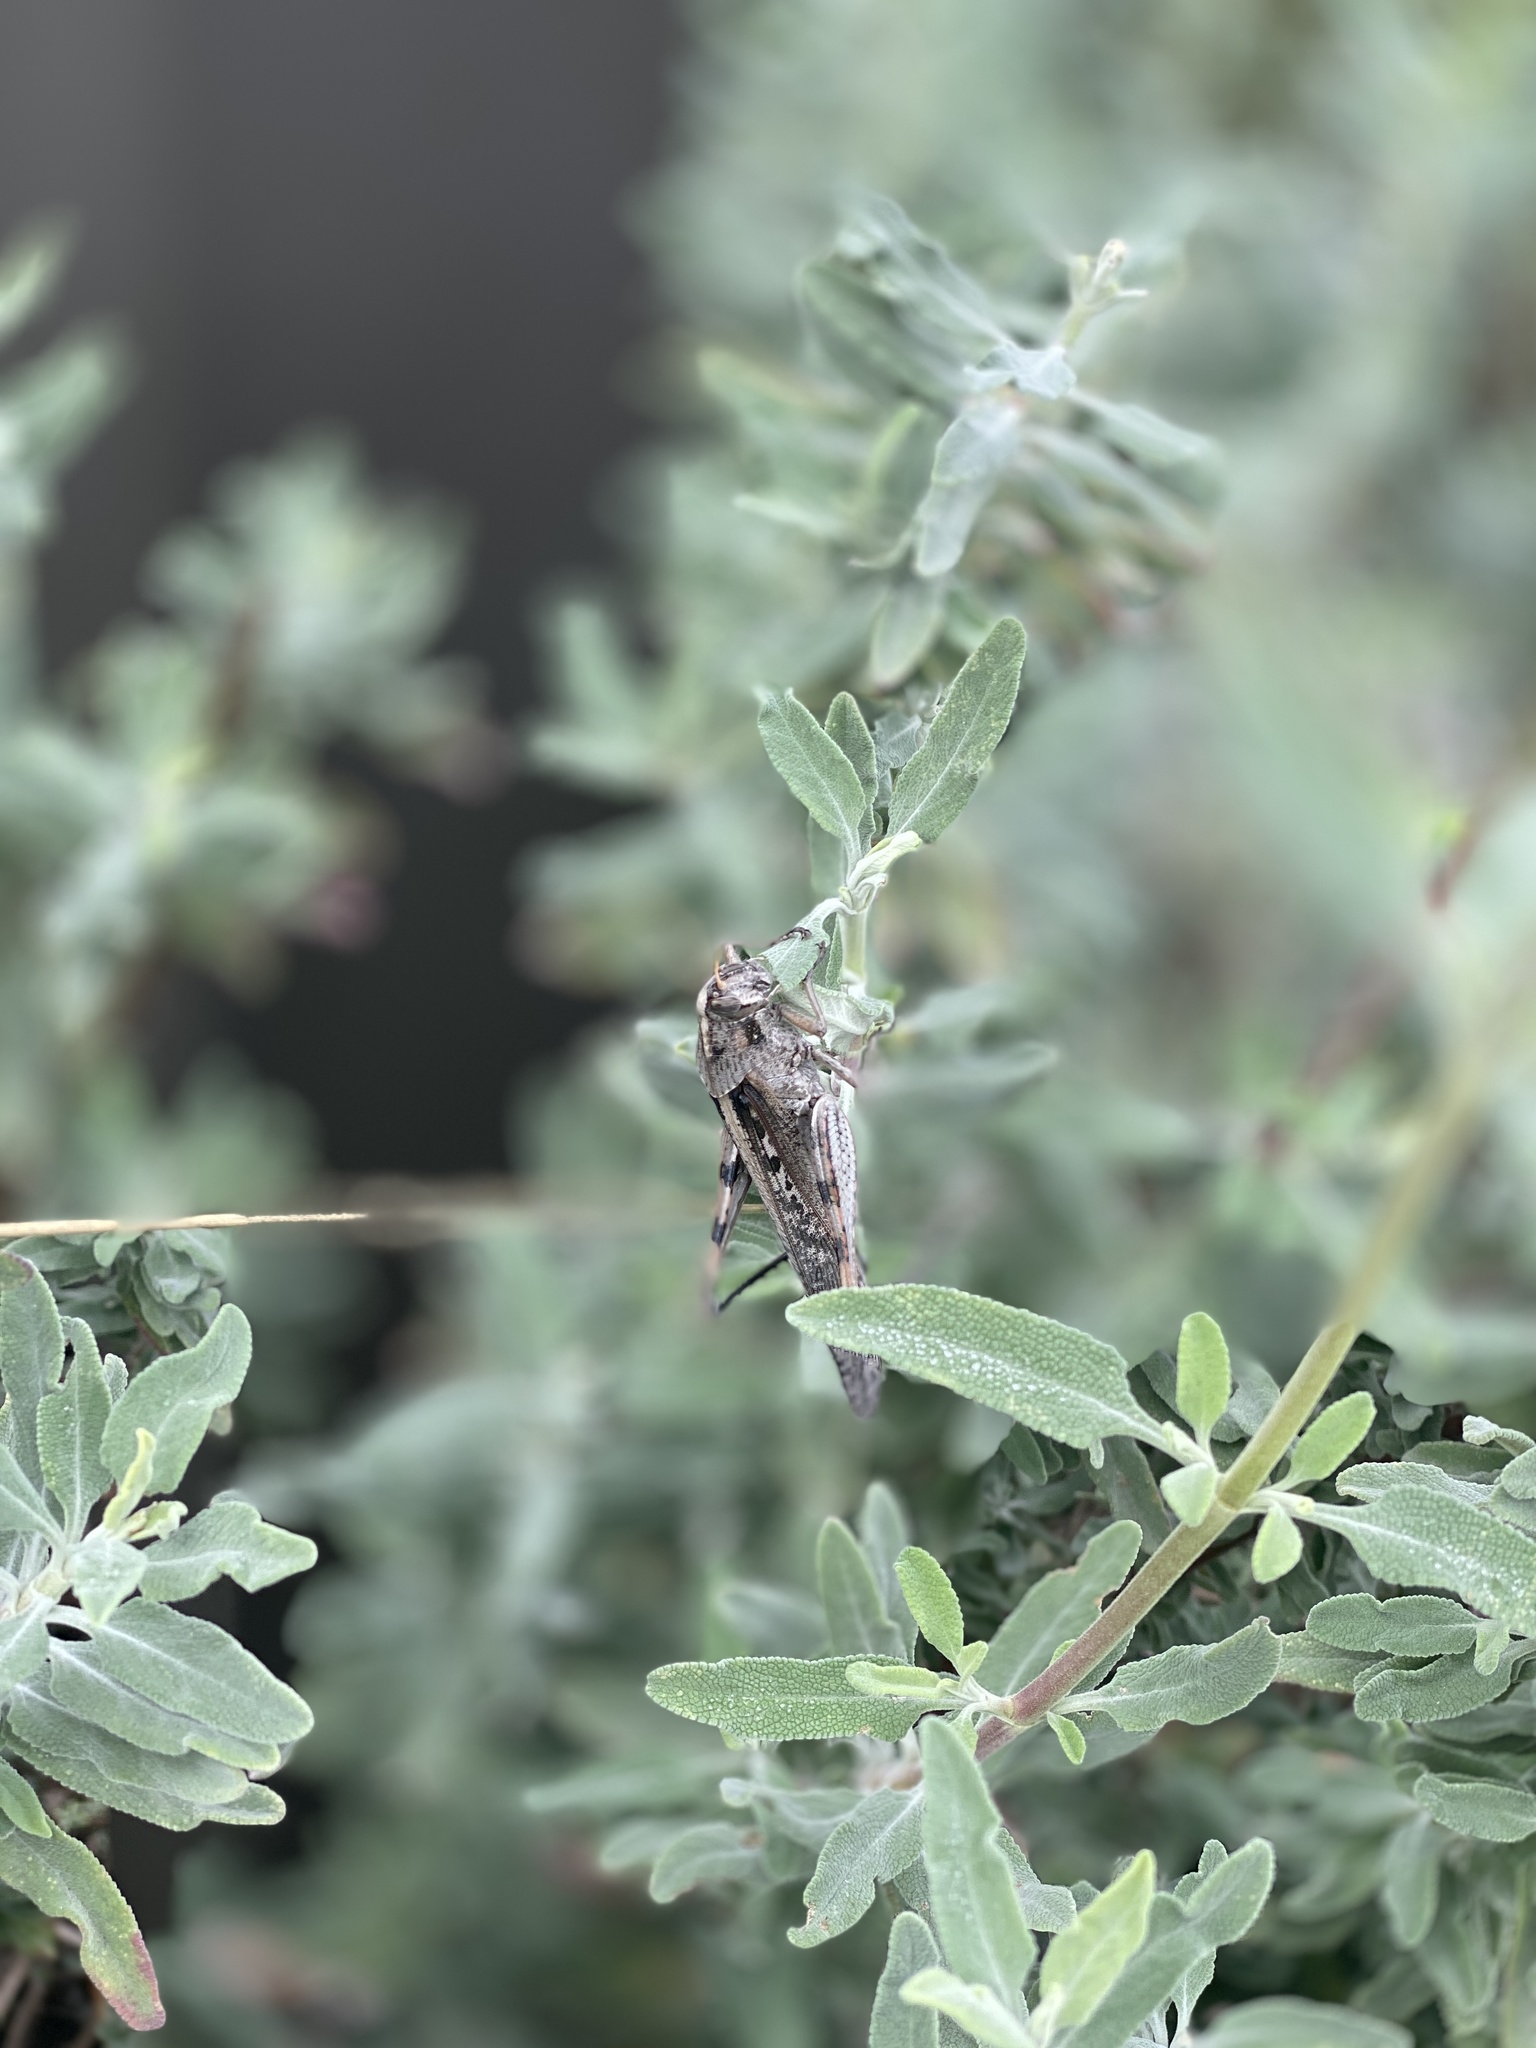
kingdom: Animalia
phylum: Arthropoda
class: Insecta
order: Orthoptera
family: Acrididae
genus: Schistocerca
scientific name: Schistocerca nitens
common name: Vagrant grasshopper
